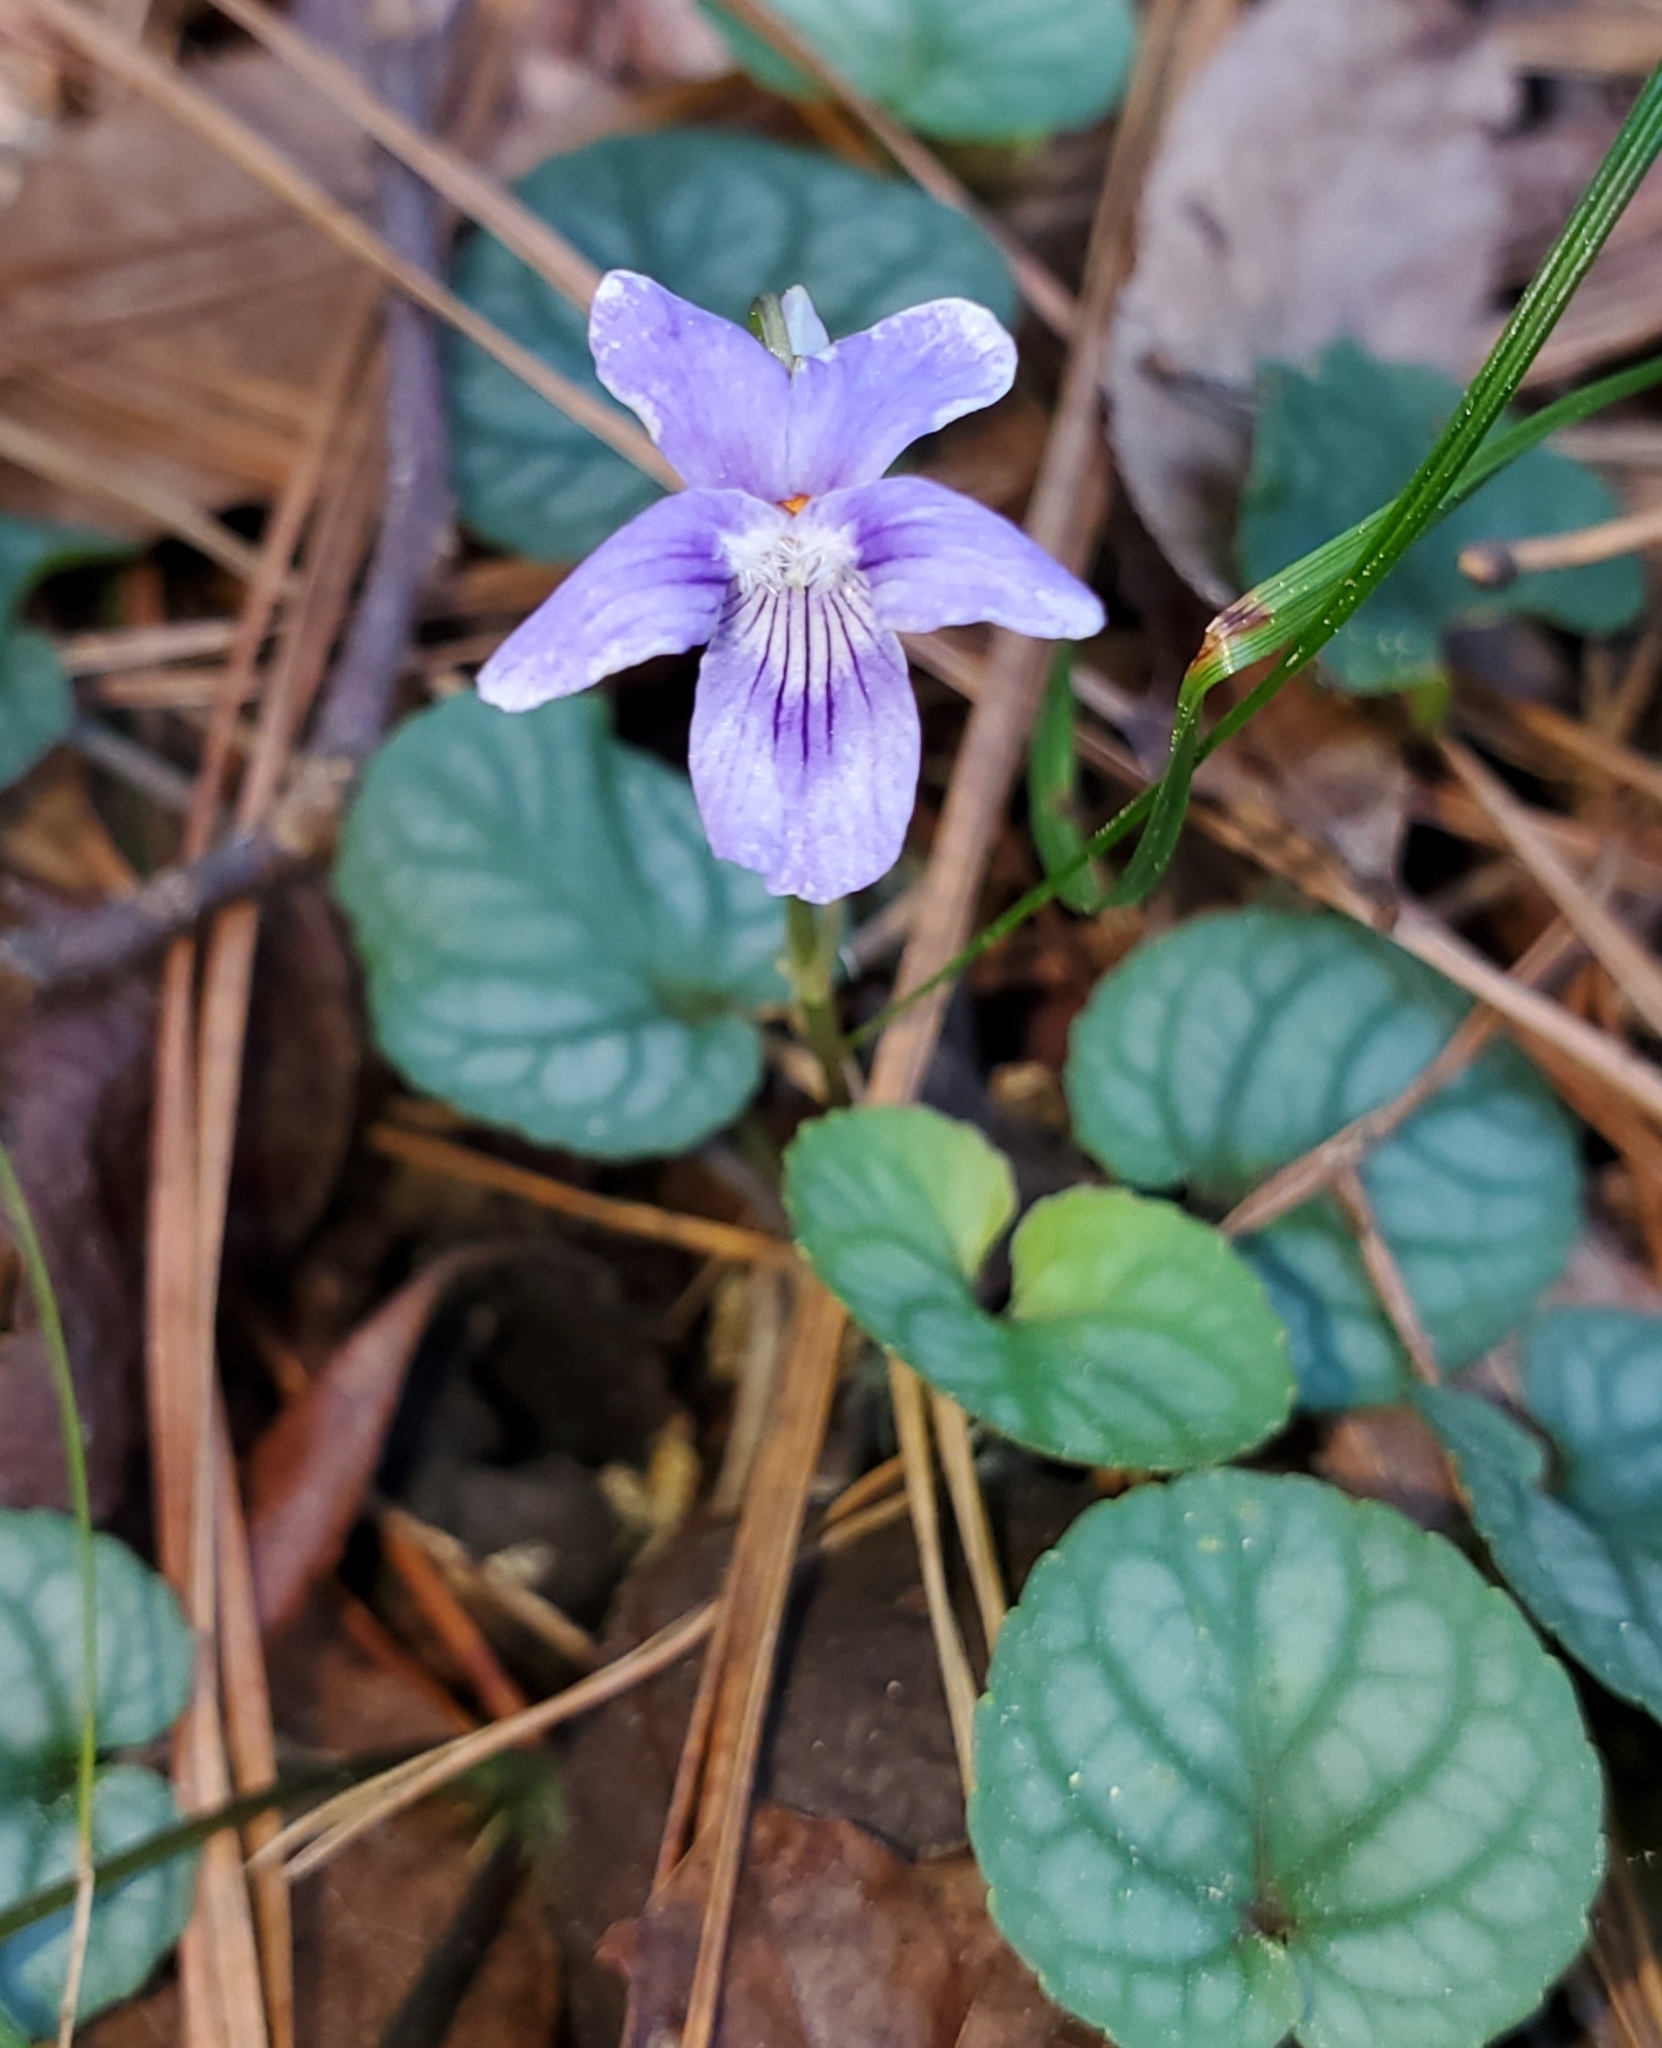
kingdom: Plantae
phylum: Tracheophyta
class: Magnoliopsida
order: Malpighiales
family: Violaceae
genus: Viola
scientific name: Viola walteri
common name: Prostrate southern violet
